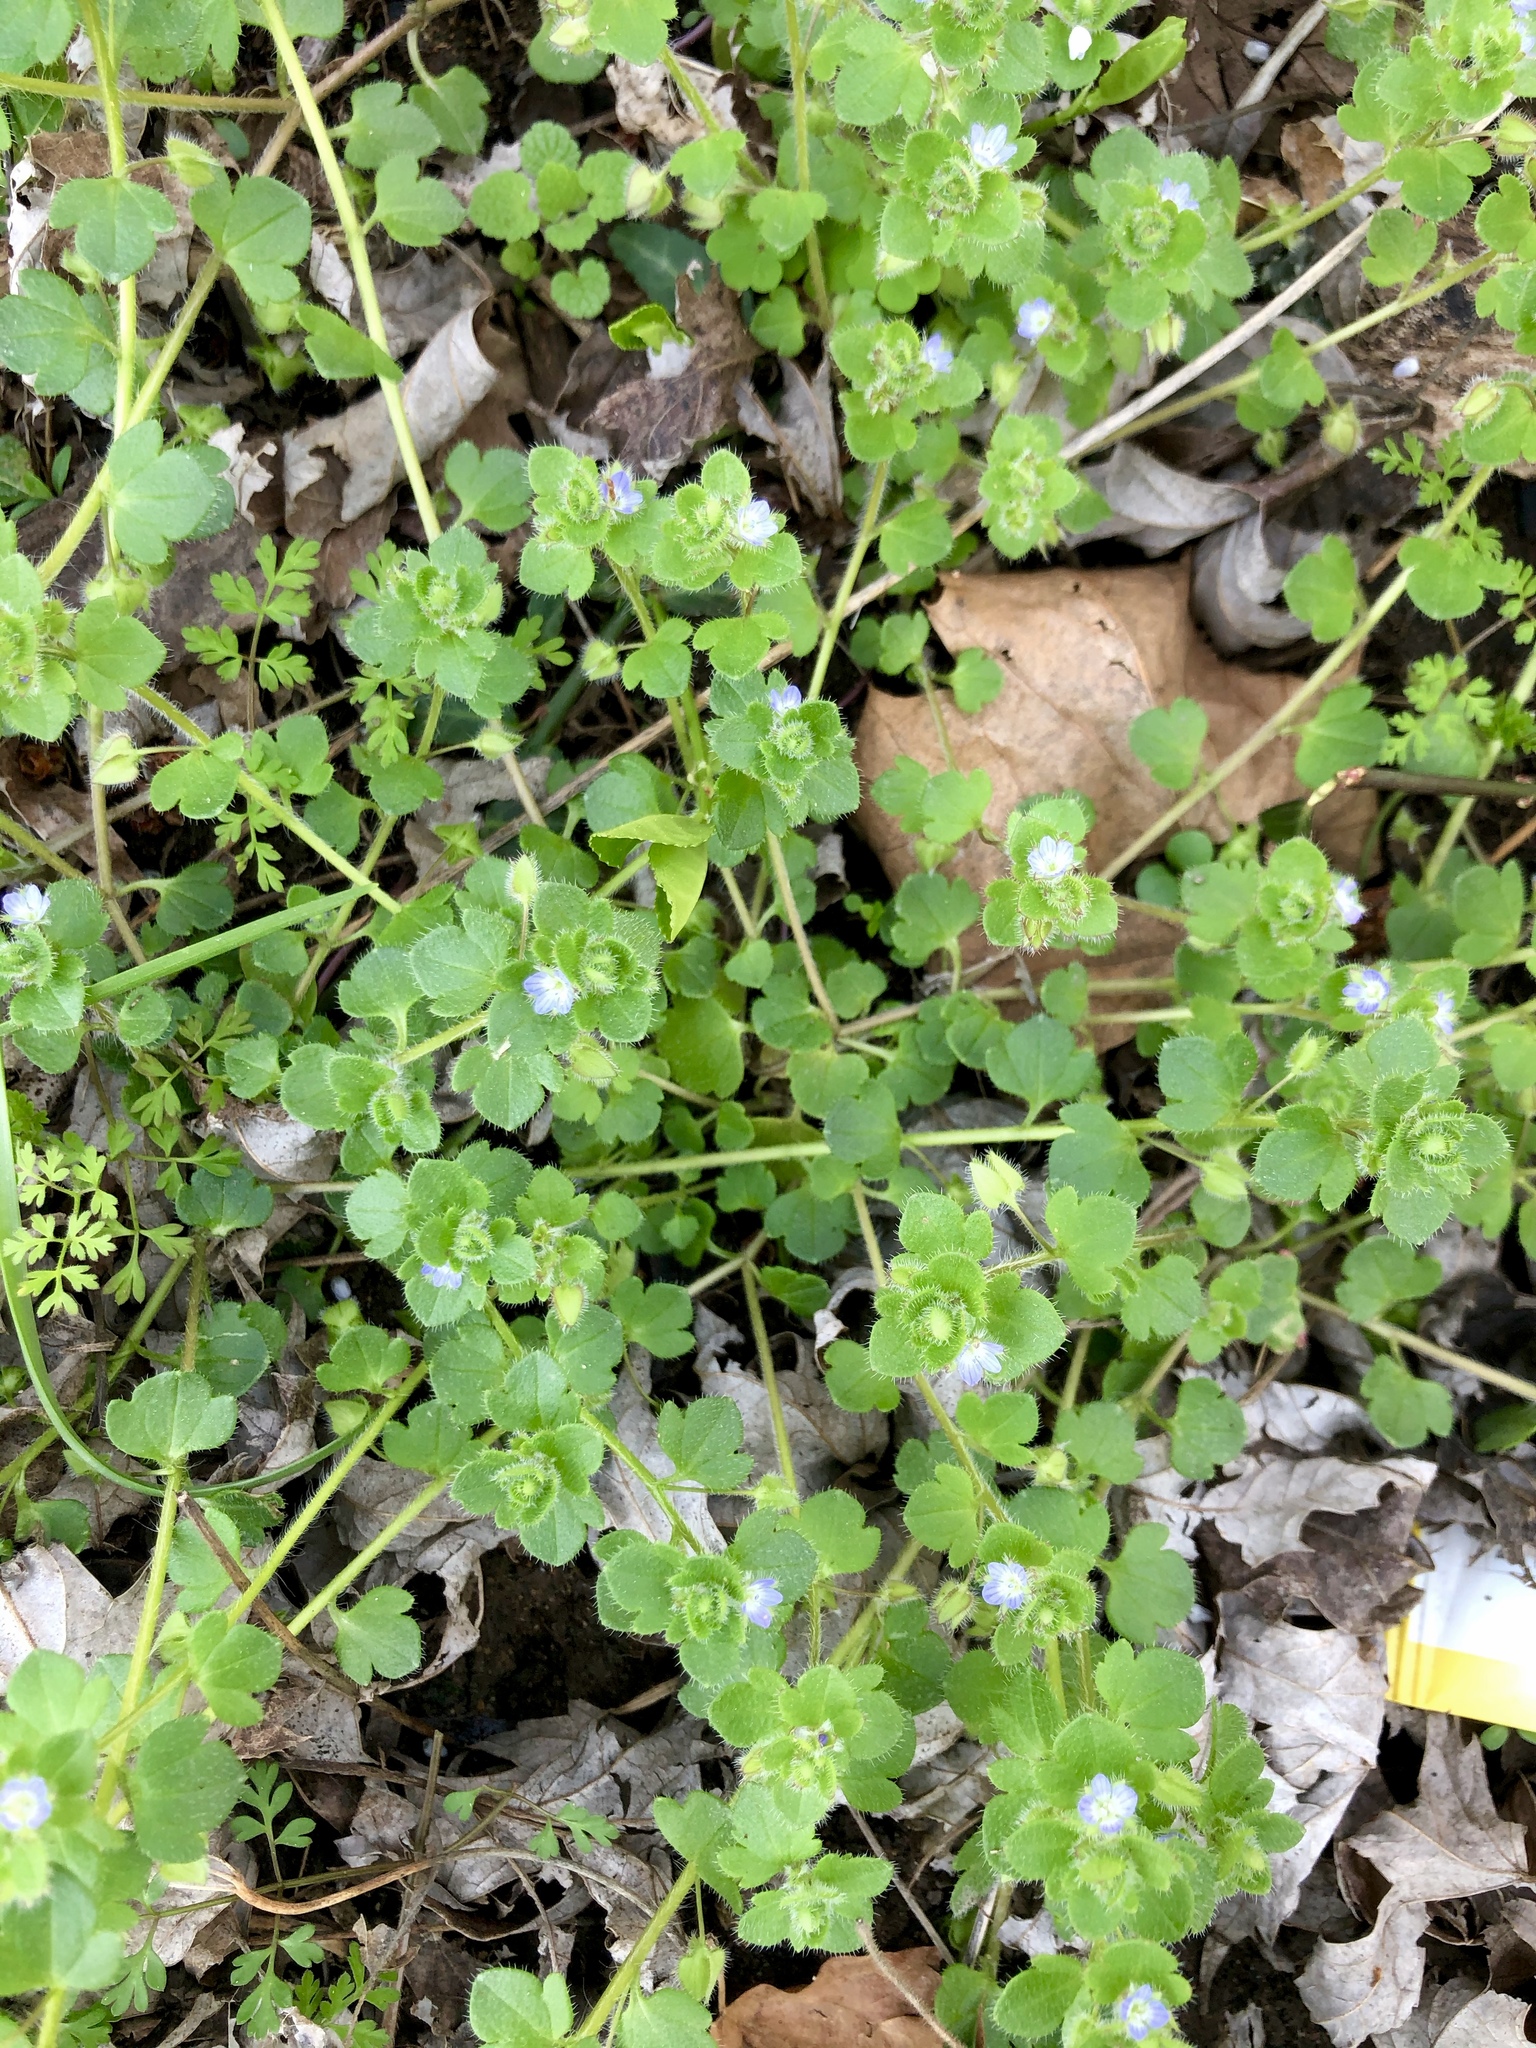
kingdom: Plantae
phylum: Tracheophyta
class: Magnoliopsida
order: Lamiales
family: Plantaginaceae
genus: Veronica
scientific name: Veronica hederifolia
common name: Ivy-leaved speedwell
